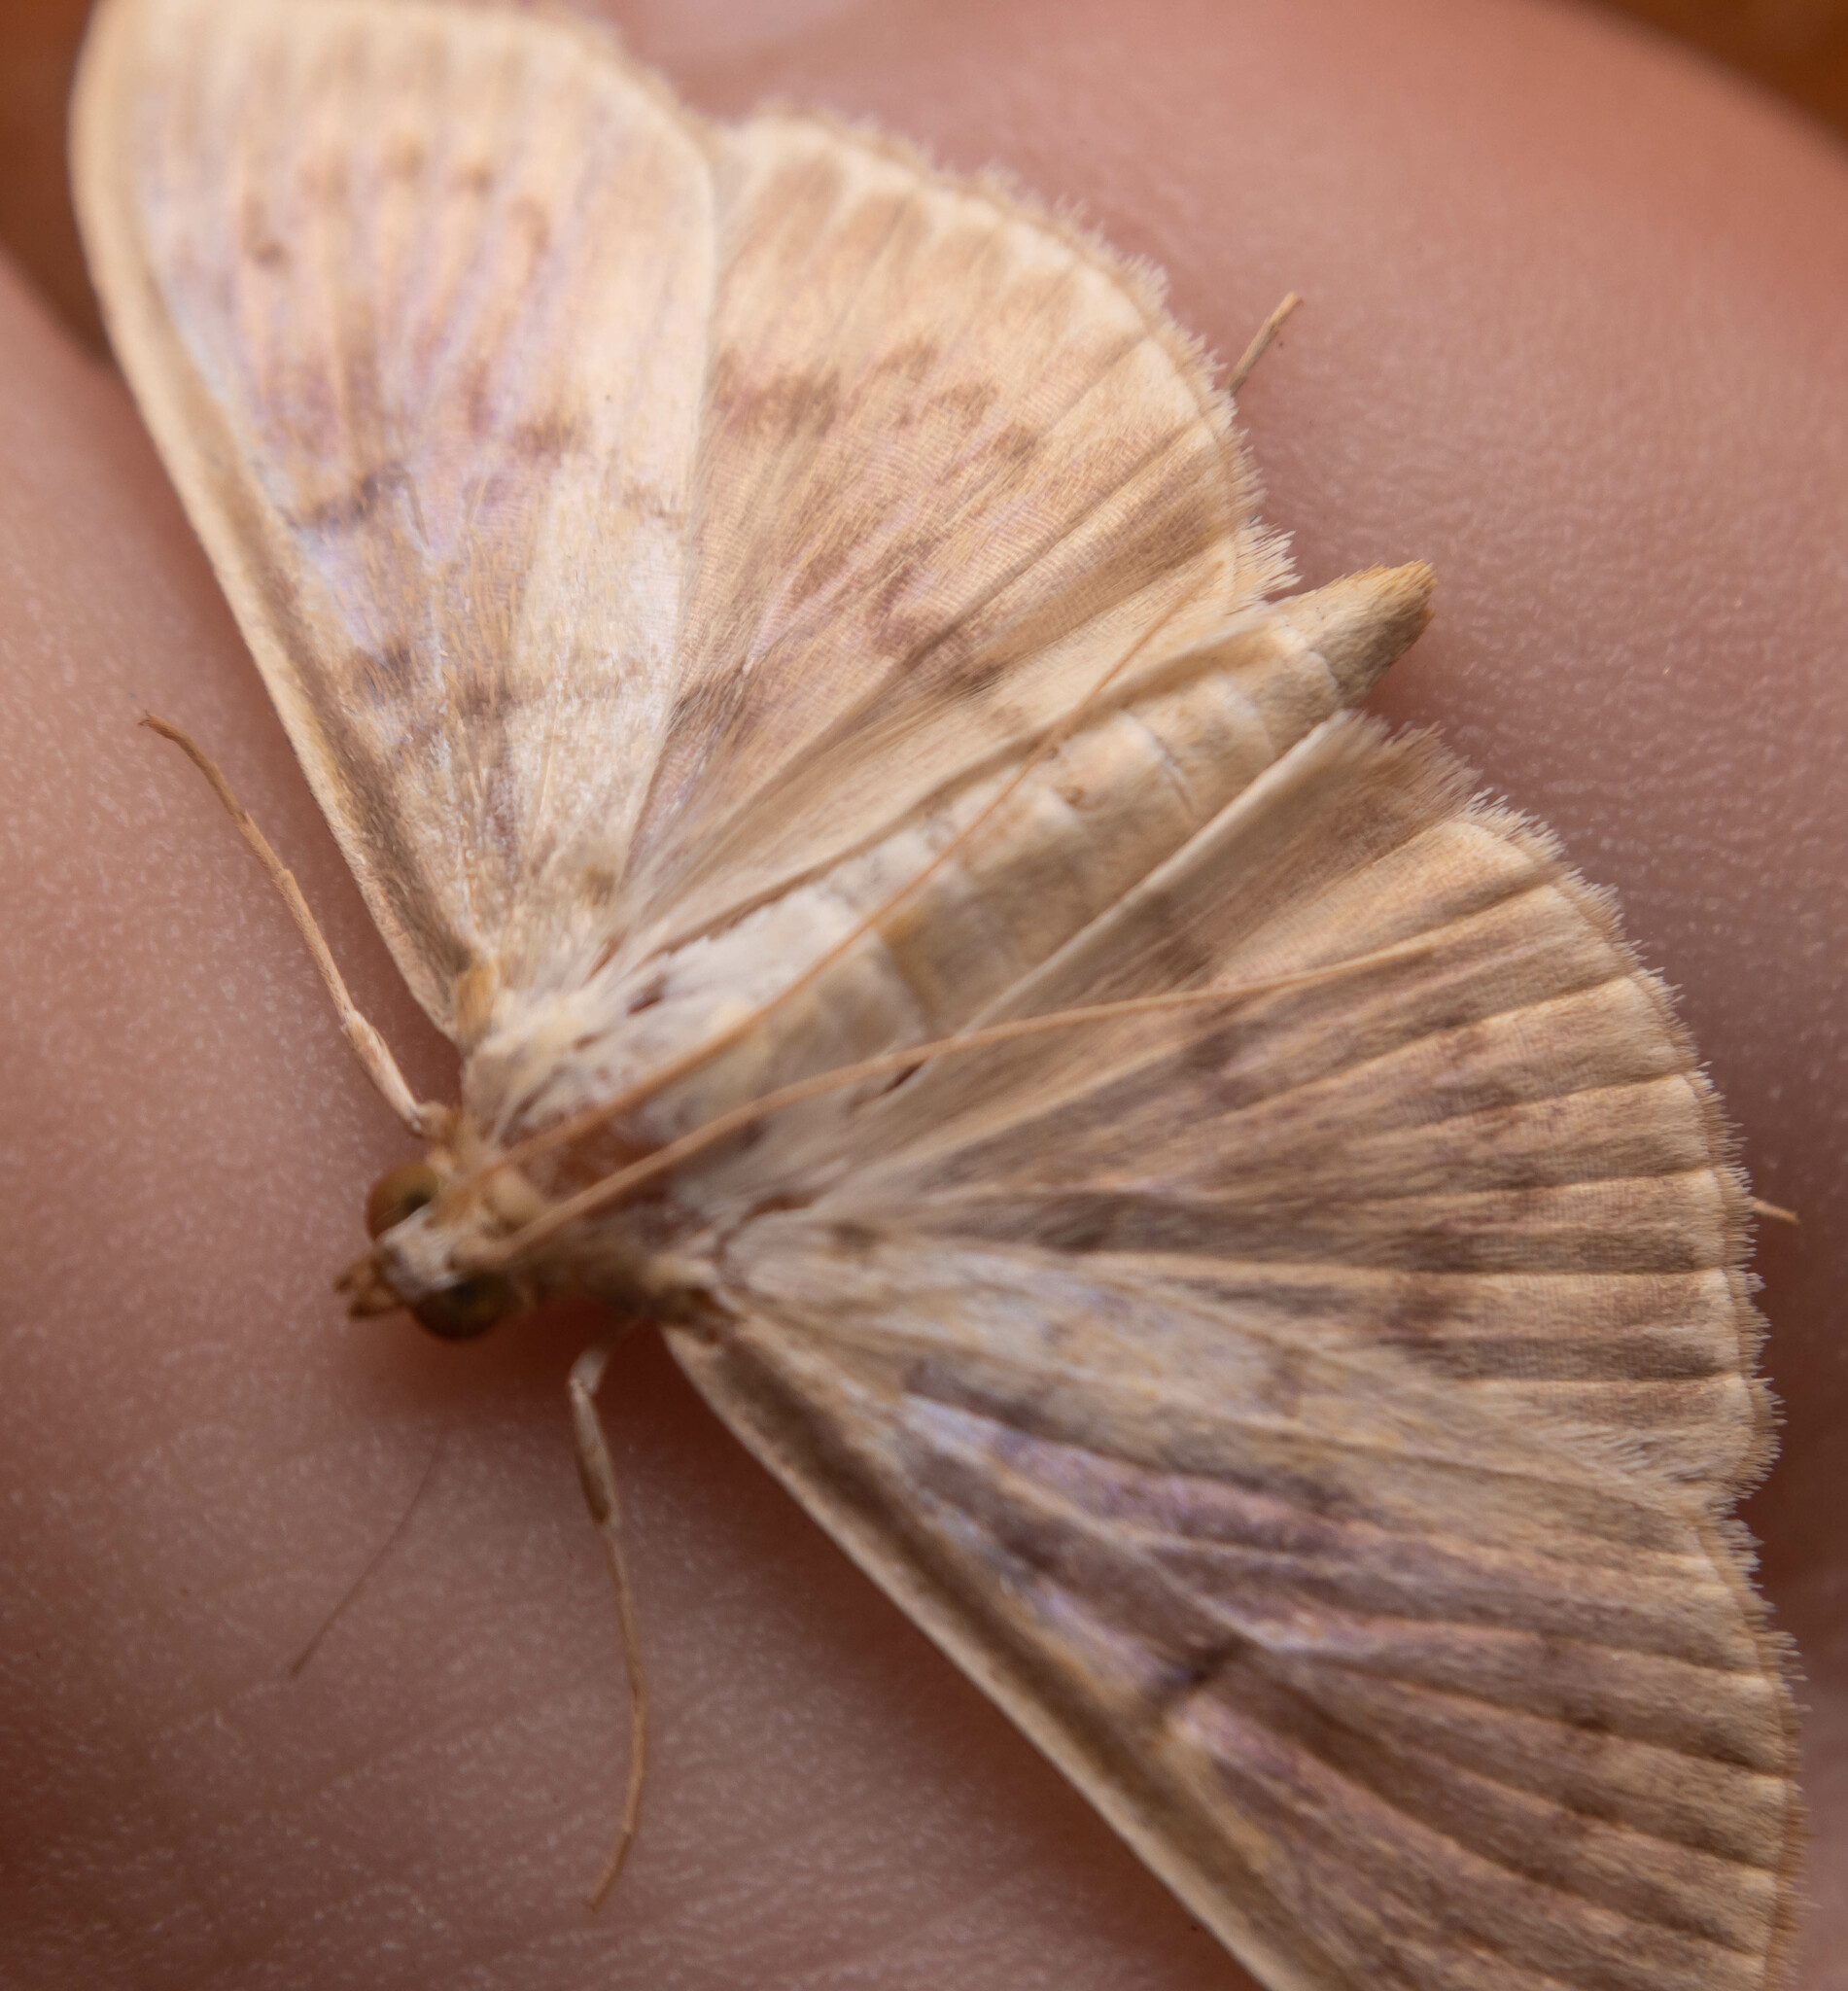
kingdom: Animalia
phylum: Arthropoda
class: Insecta
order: Lepidoptera
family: Crambidae
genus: Patania
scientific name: Patania ruralis
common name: Mother of pearl
